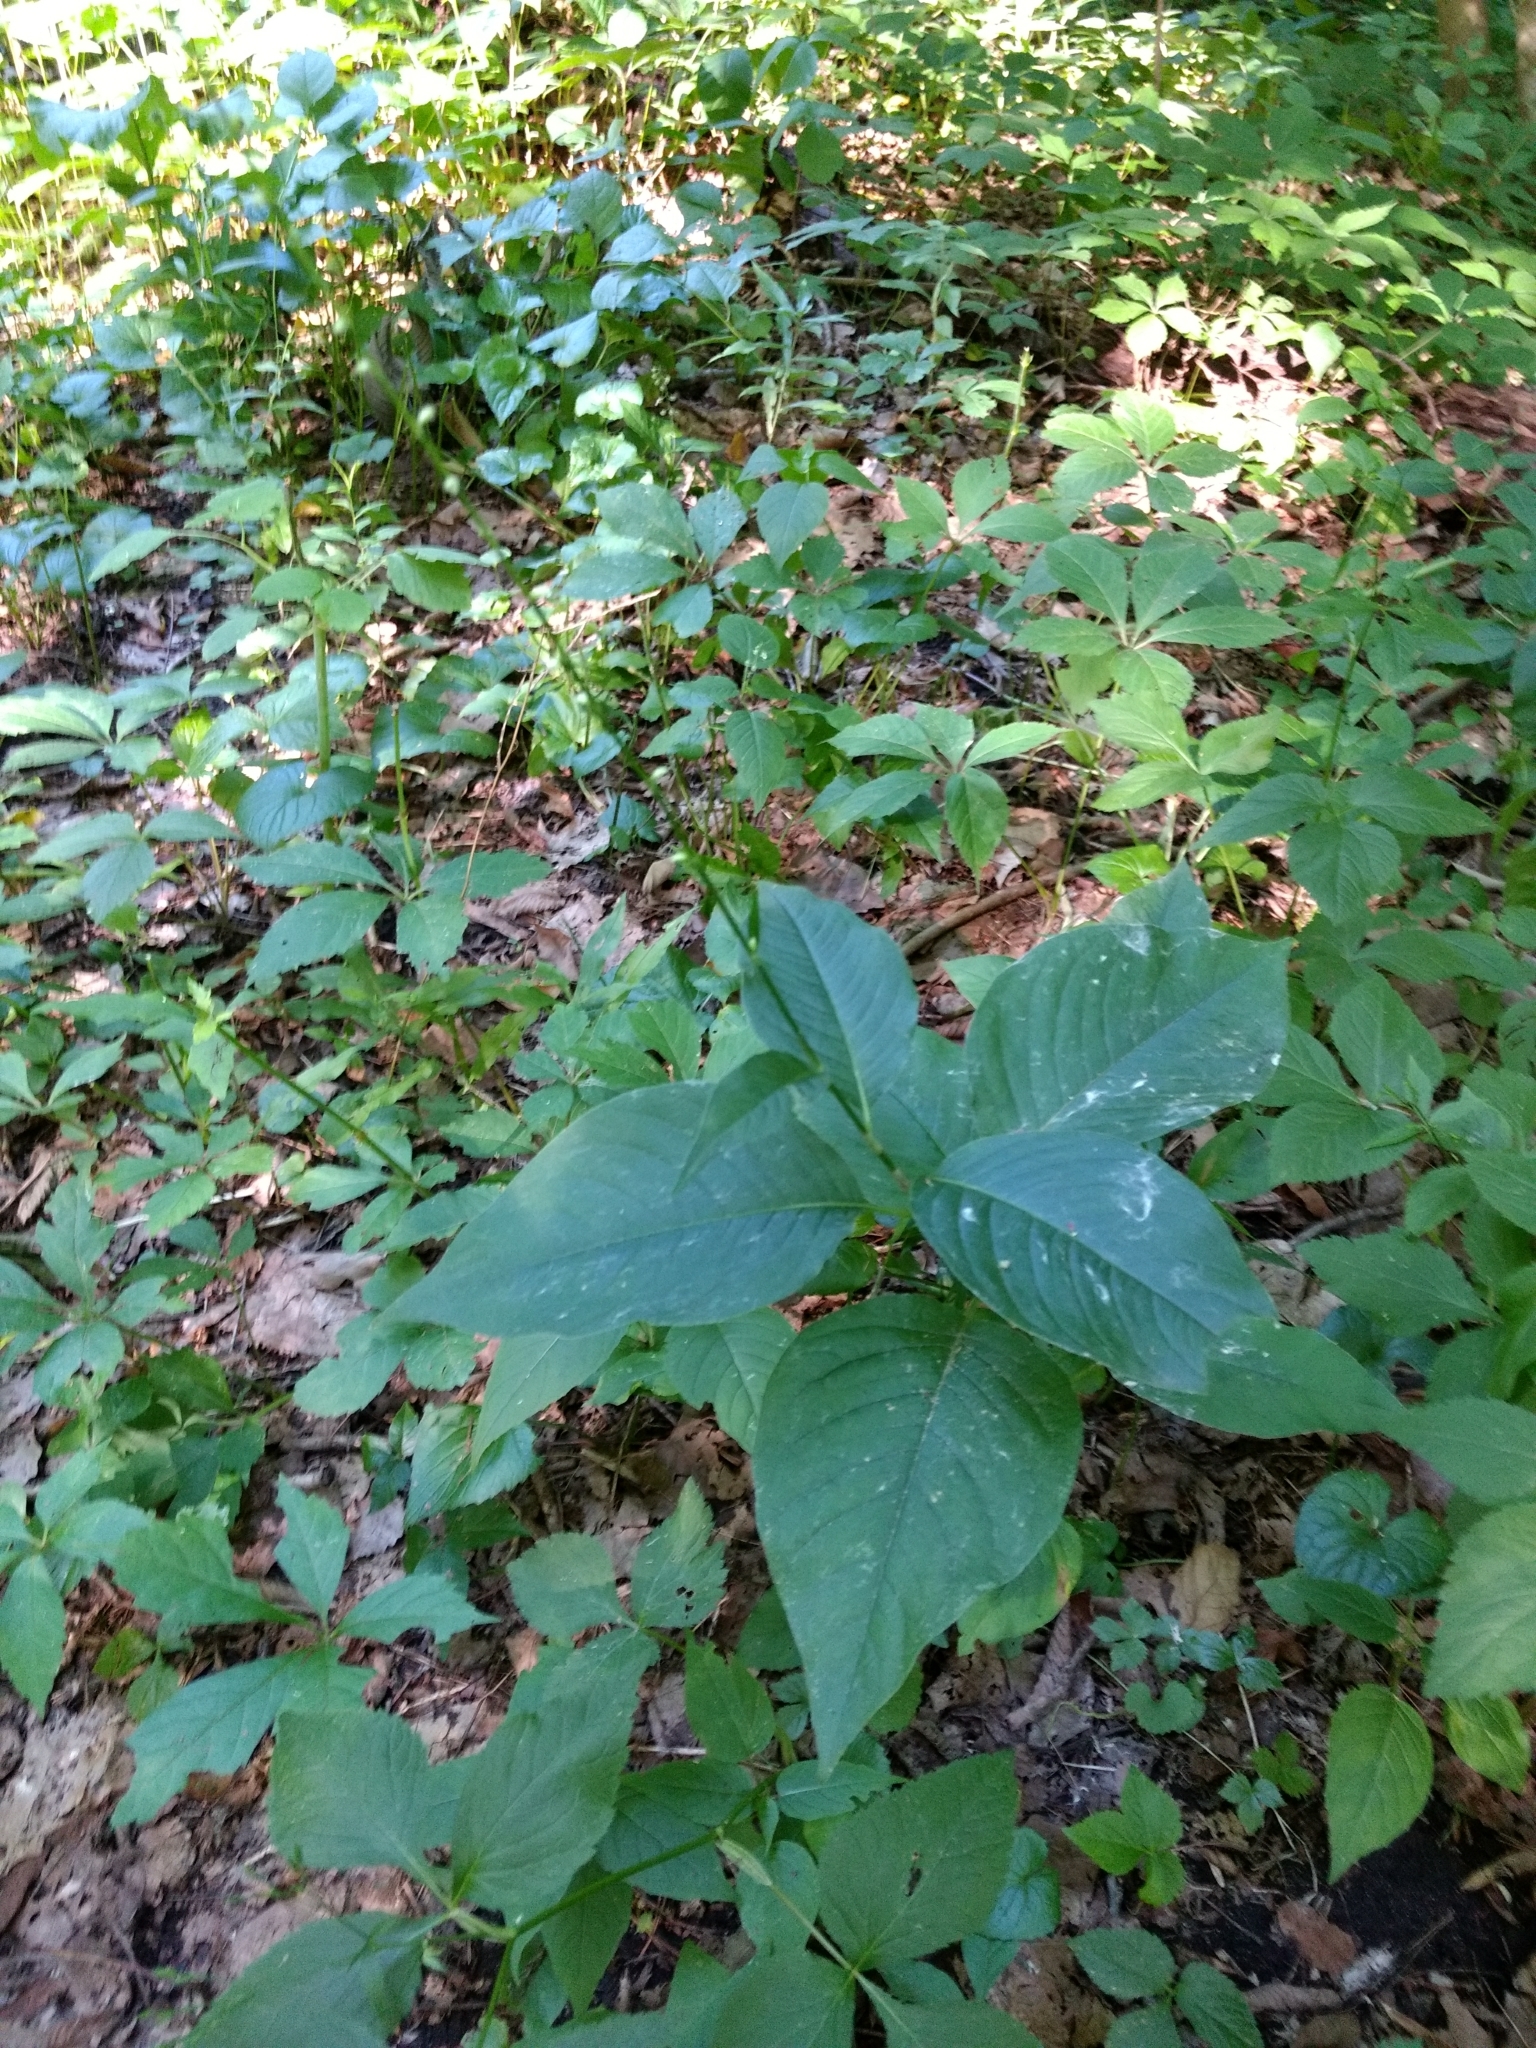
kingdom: Plantae
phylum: Tracheophyta
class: Magnoliopsida
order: Caryophyllales
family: Polygonaceae
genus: Persicaria
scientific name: Persicaria virginiana
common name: Jumpseed
